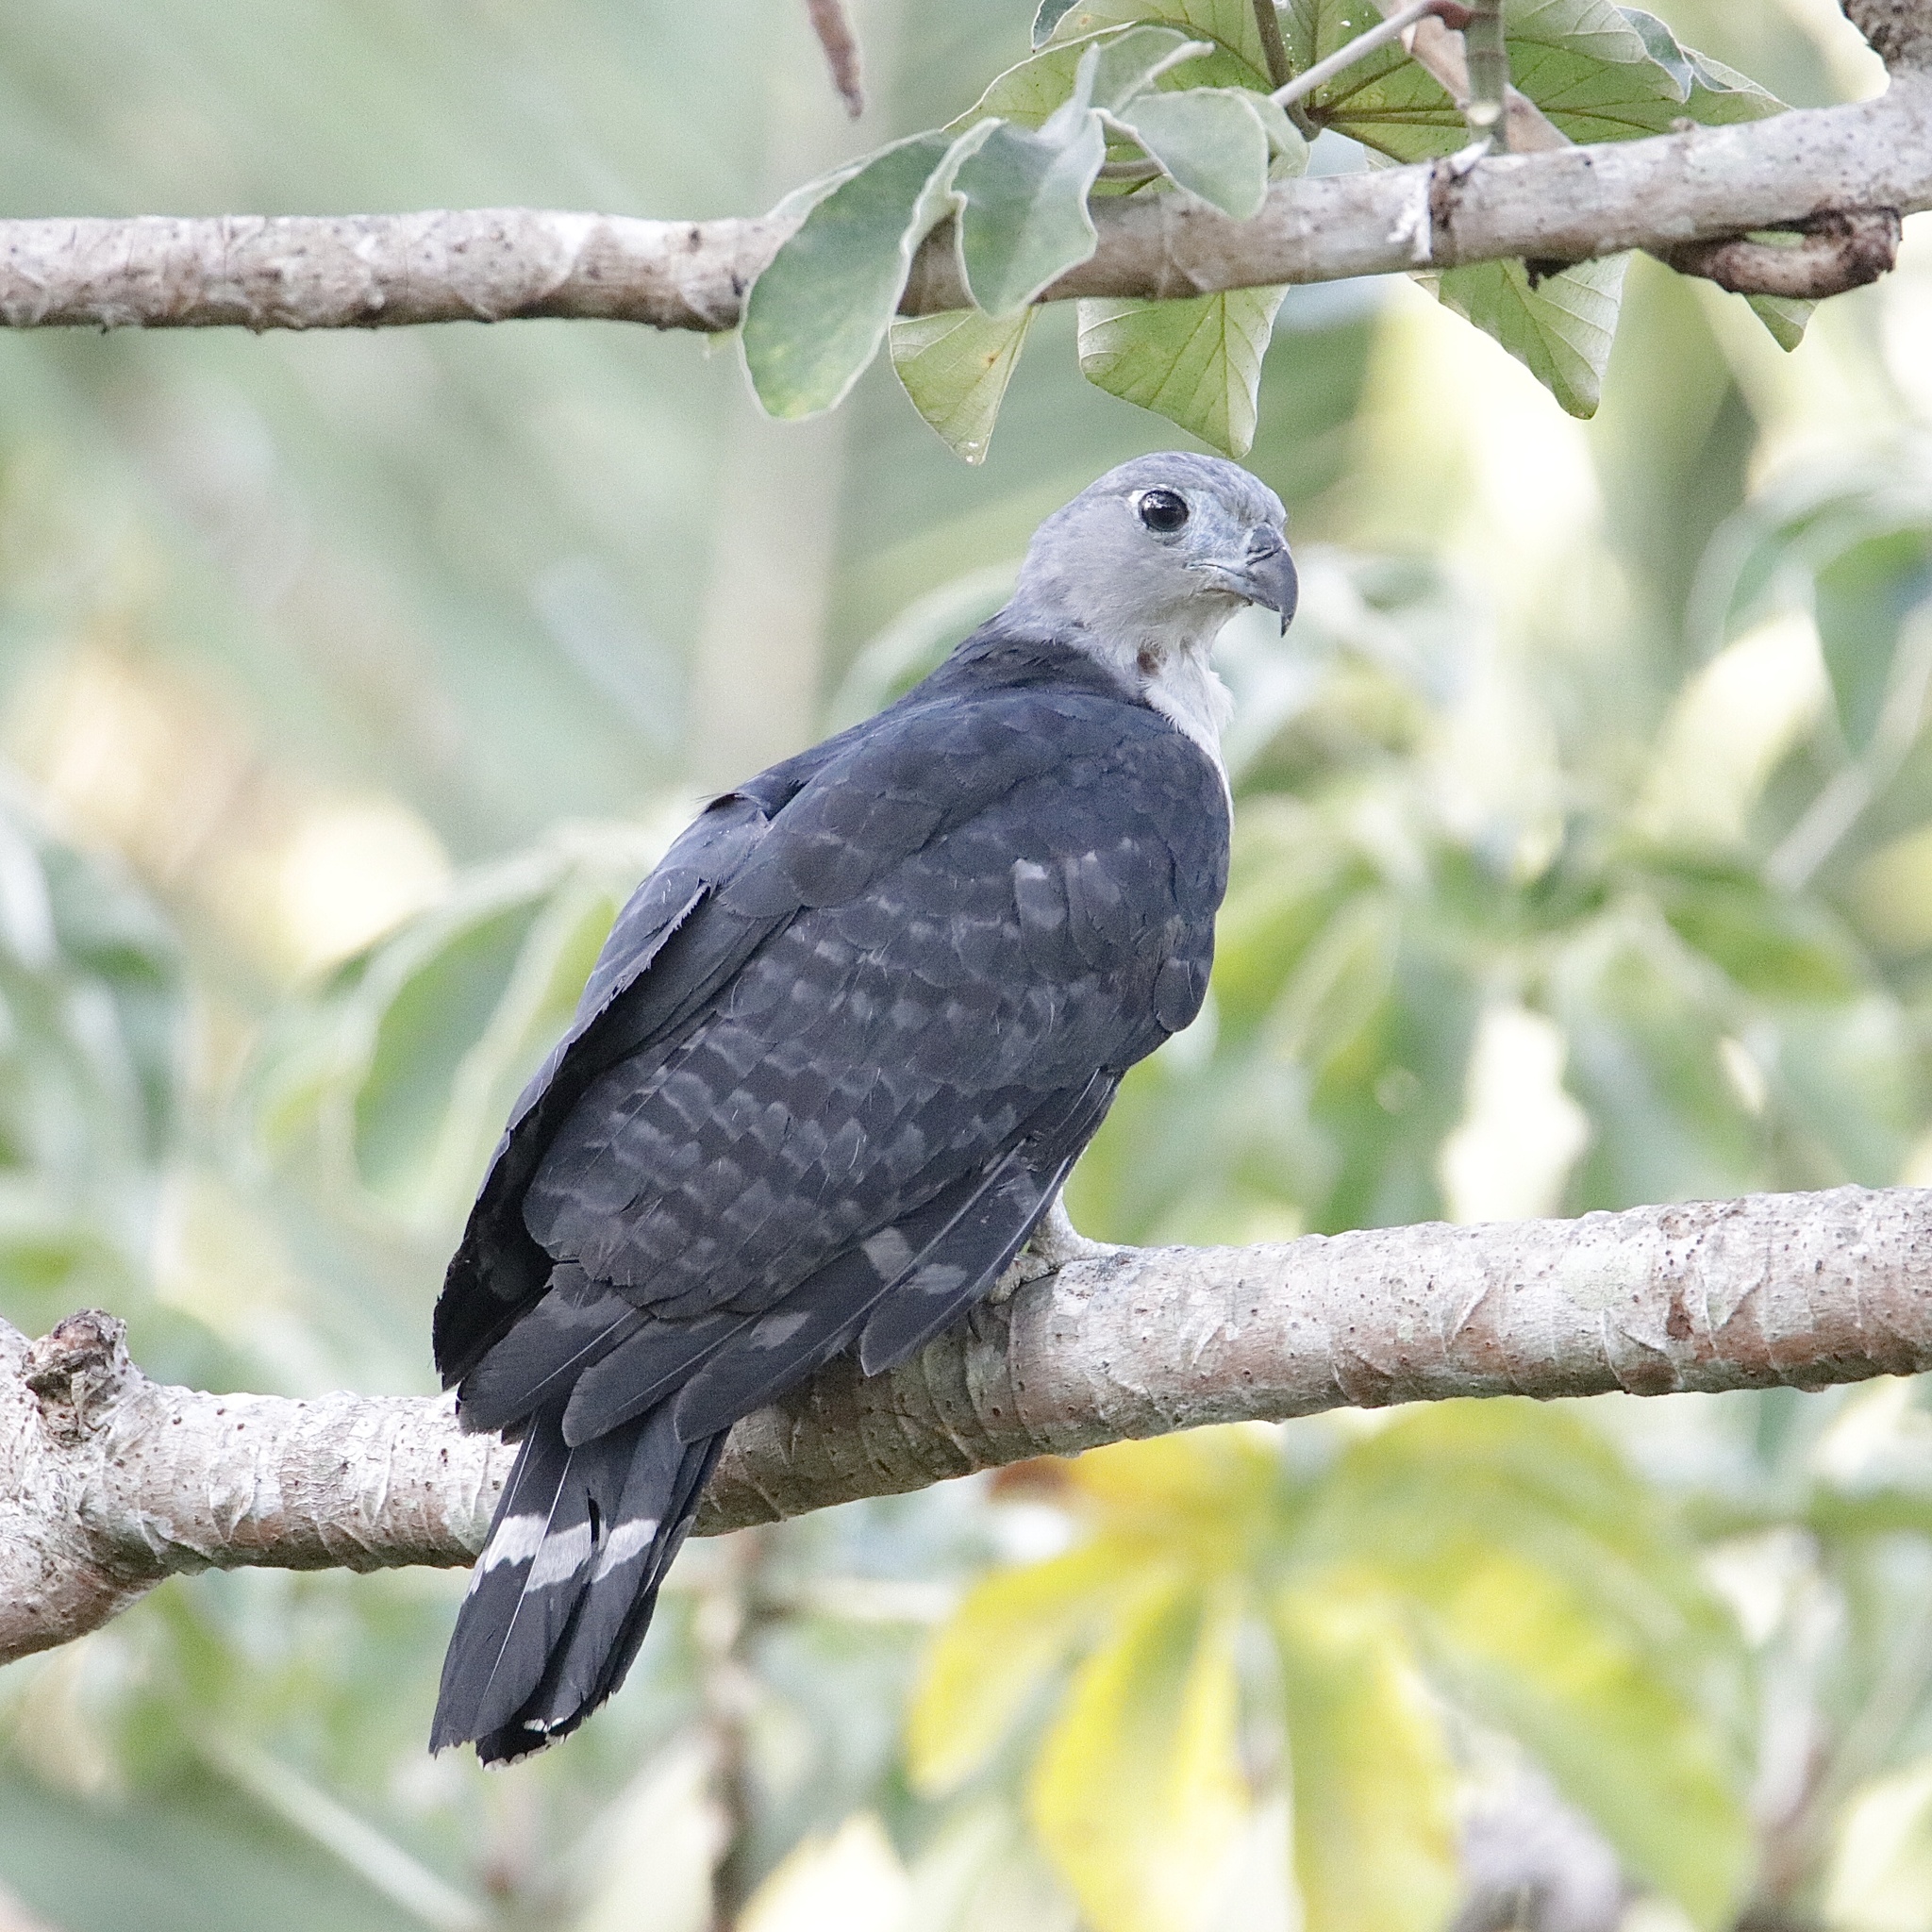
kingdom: Animalia
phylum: Chordata
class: Aves
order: Accipitriformes
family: Accipitridae
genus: Leptodon
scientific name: Leptodon cayanensis
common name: Gray-headed kite
